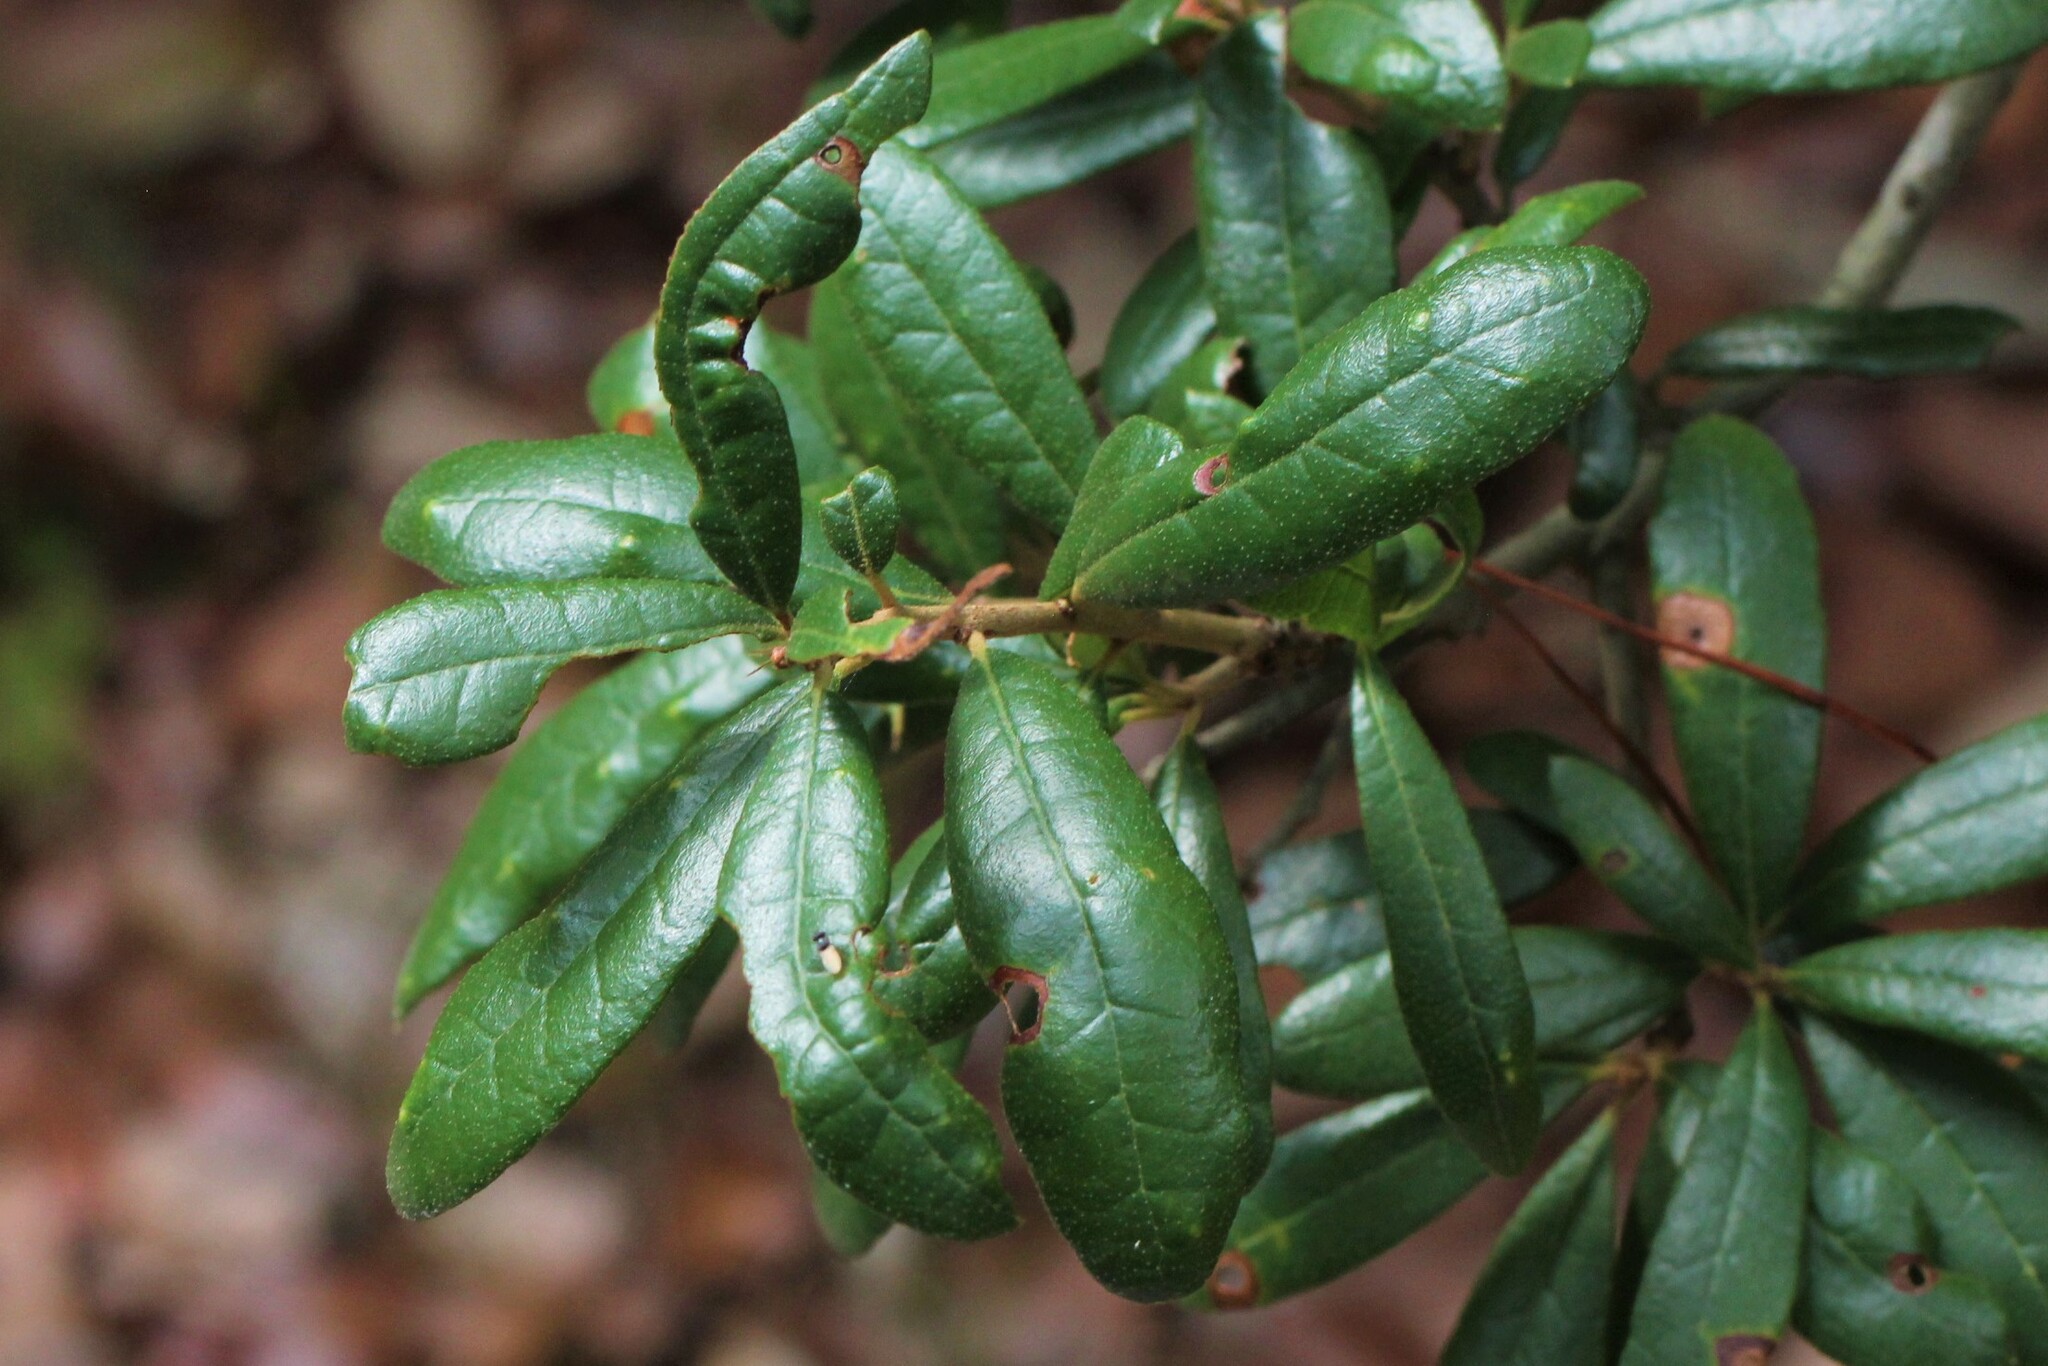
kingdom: Plantae
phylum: Tracheophyta
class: Magnoliopsida
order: Fagales
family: Fagaceae
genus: Quercus
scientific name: Quercus geminata
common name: Sand live oak
